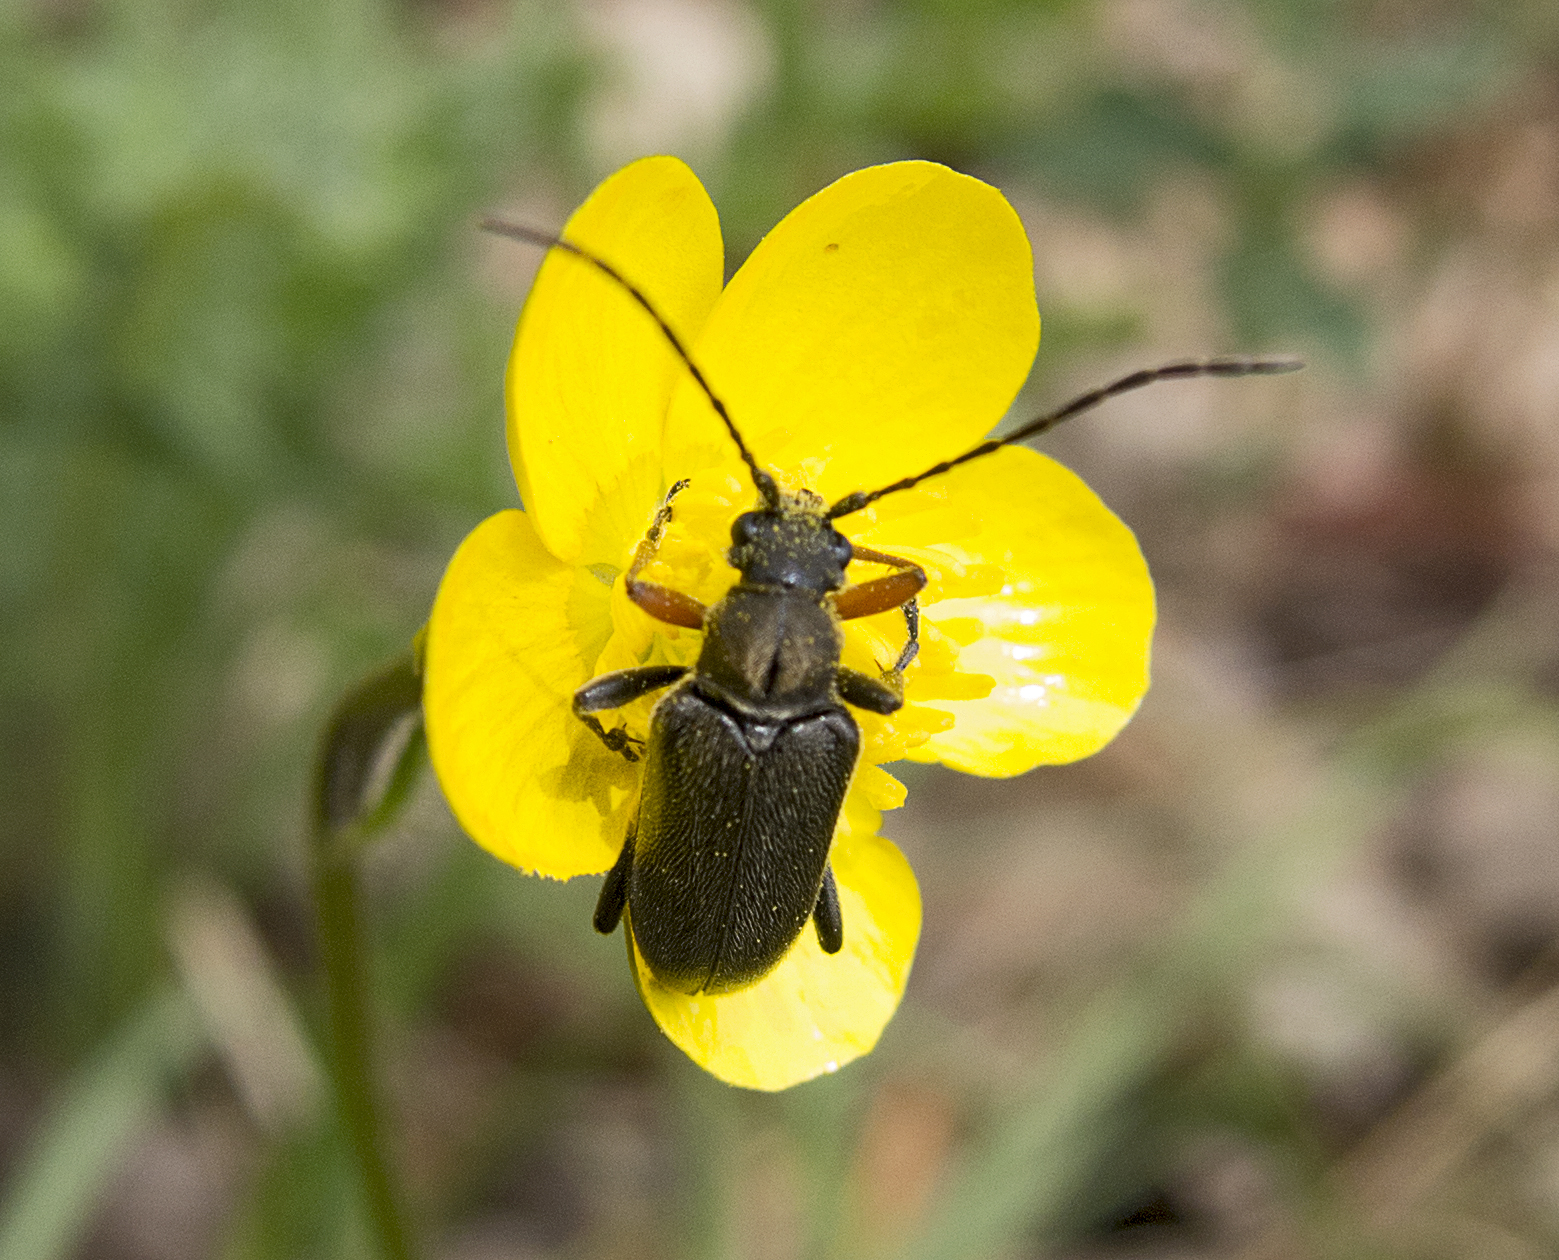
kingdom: Animalia
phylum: Arthropoda
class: Insecta
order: Coleoptera
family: Cerambycidae
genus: Cortodera
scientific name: Cortodera flavimana
